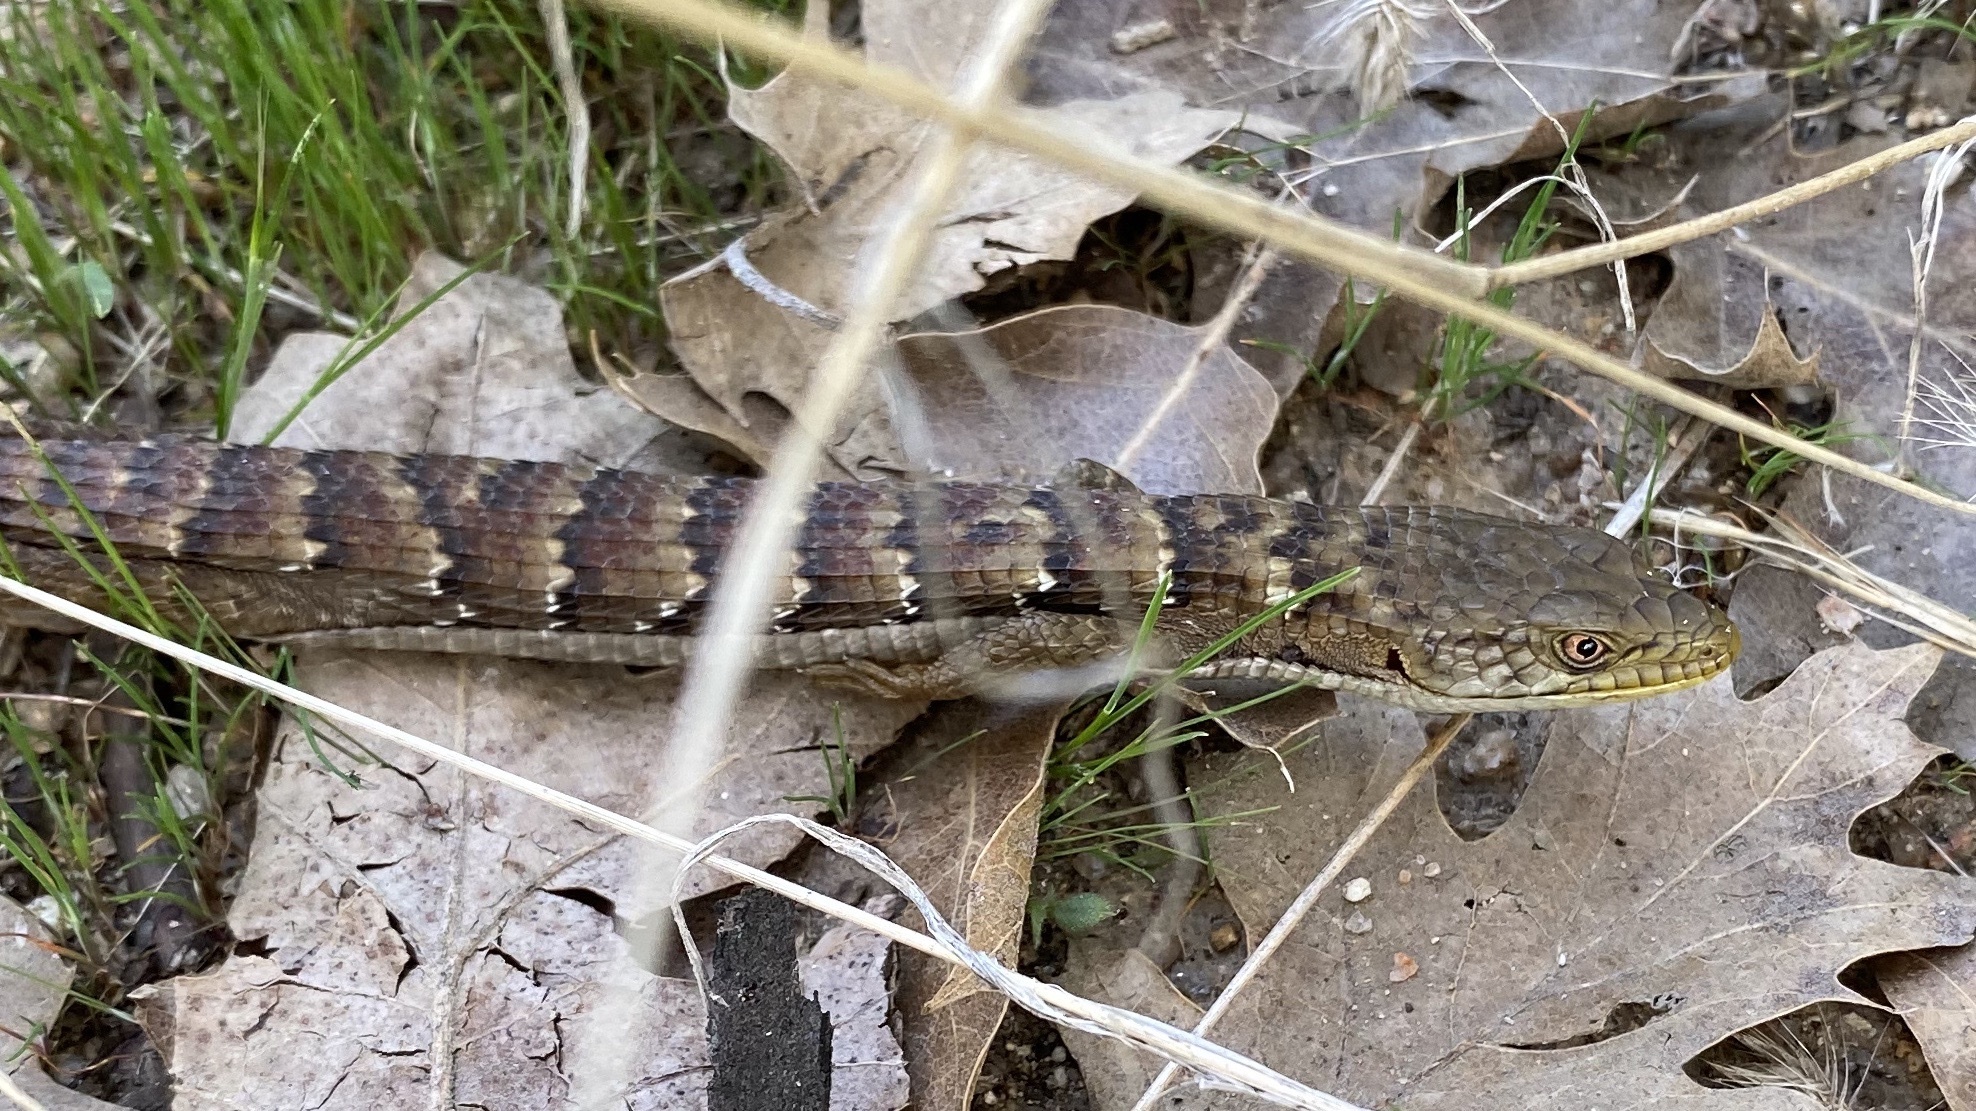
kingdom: Animalia
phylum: Chordata
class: Squamata
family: Anguidae
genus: Elgaria
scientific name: Elgaria multicarinata
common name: Southern alligator lizard
